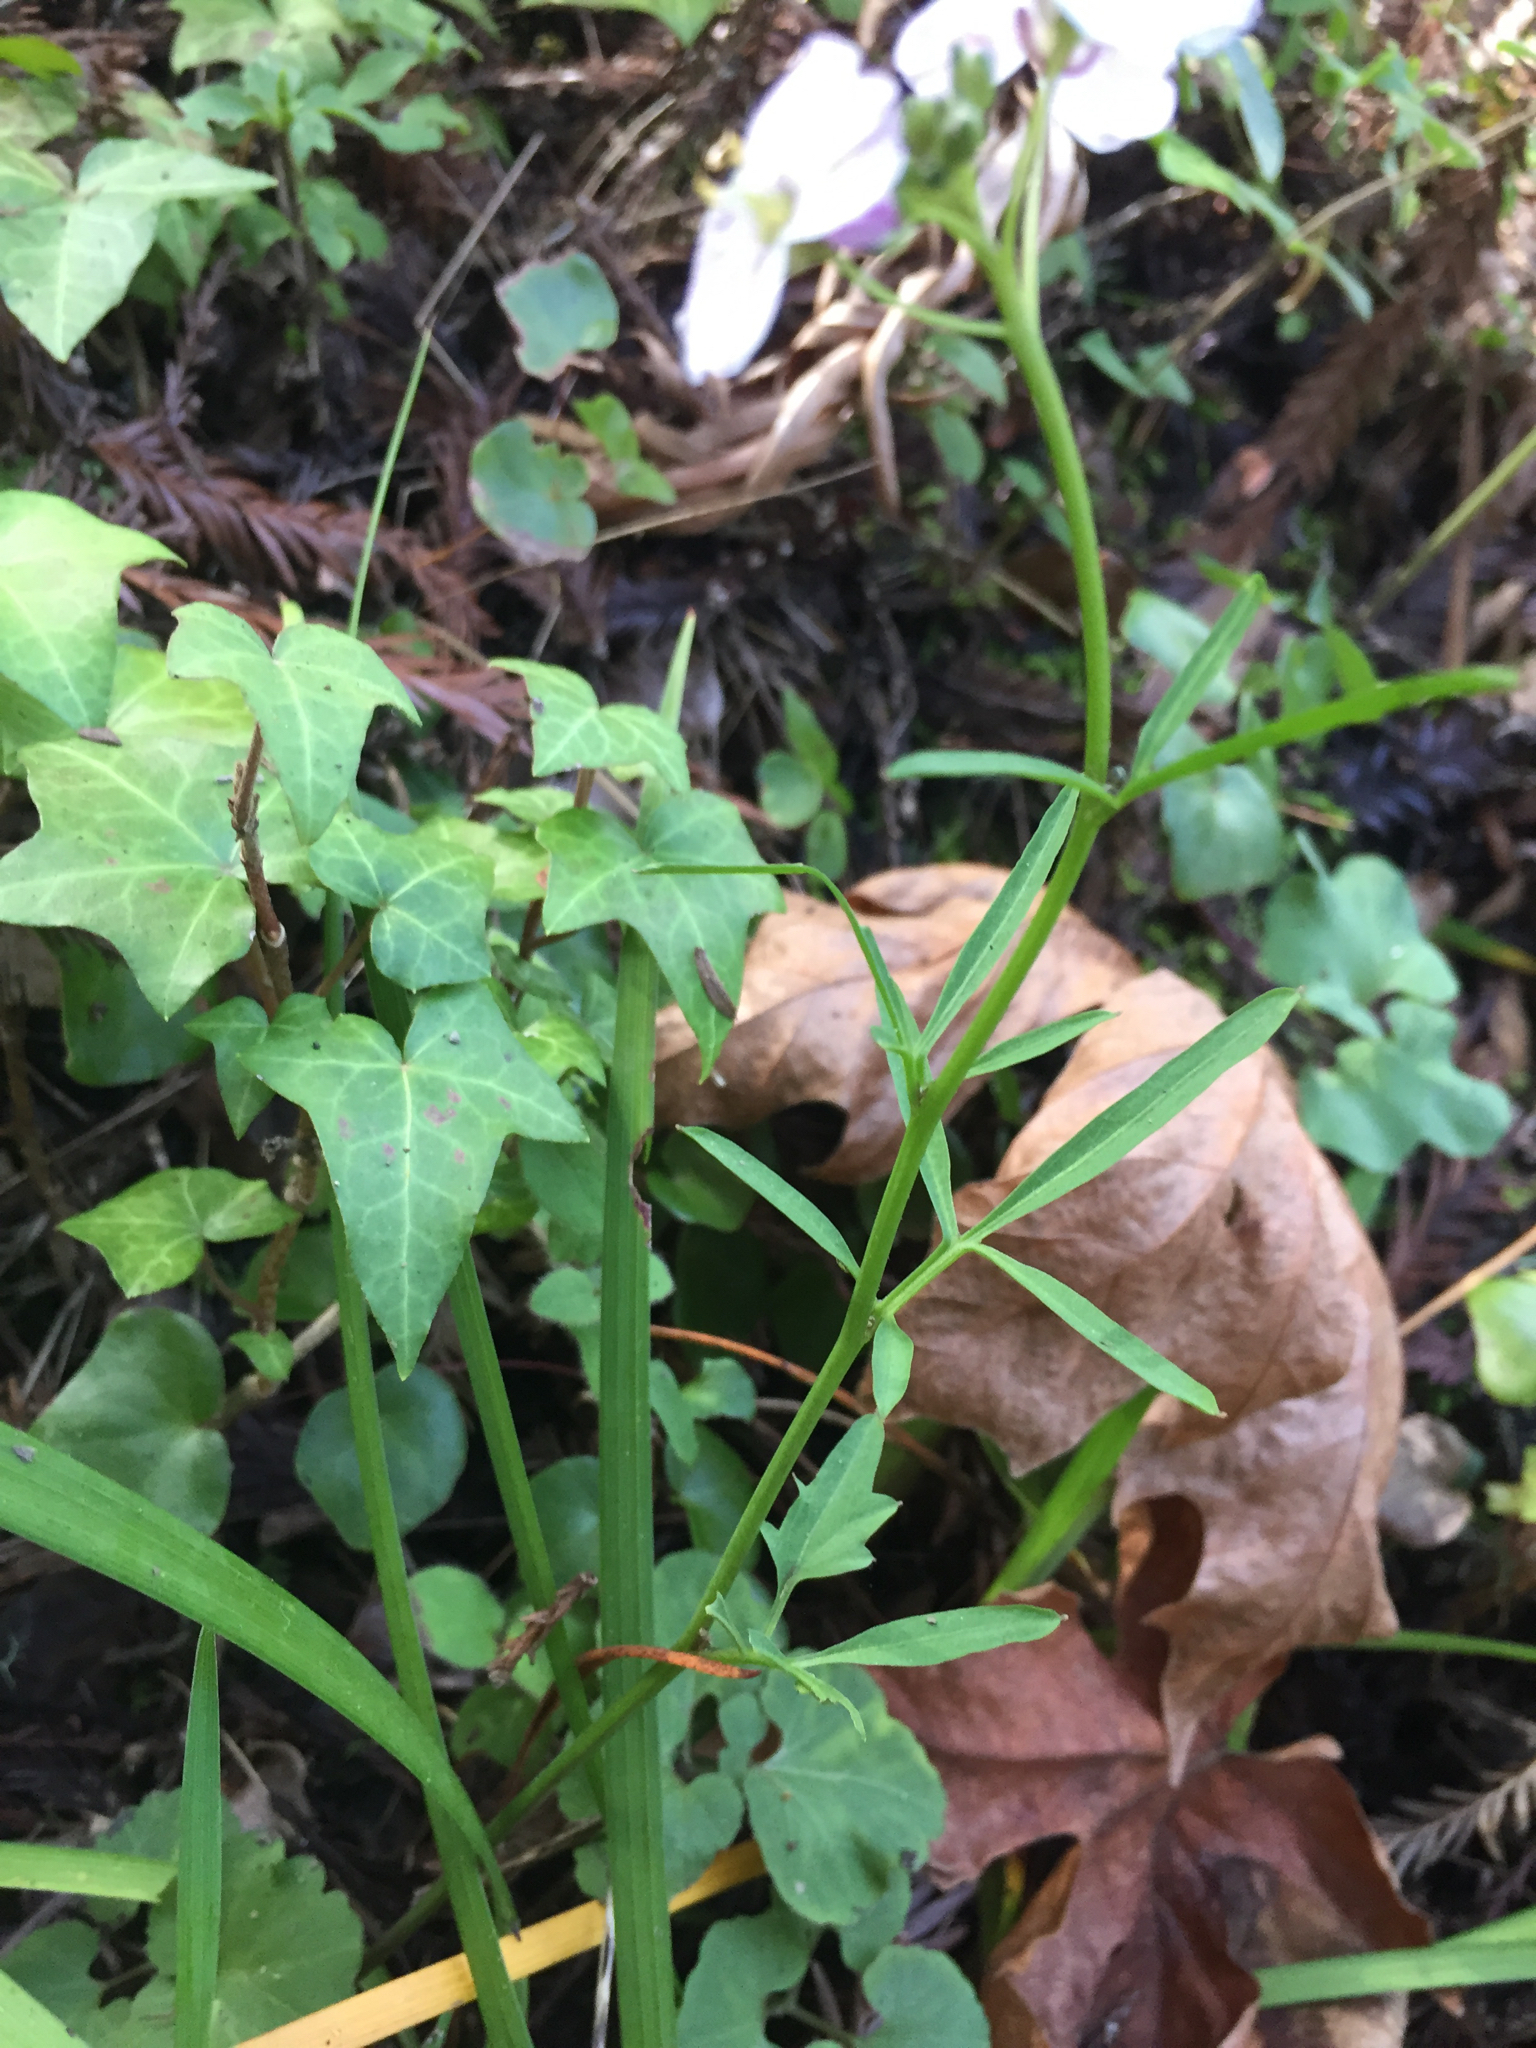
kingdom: Plantae
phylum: Tracheophyta
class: Magnoliopsida
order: Brassicales
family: Brassicaceae
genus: Cardamine
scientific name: Cardamine californica
